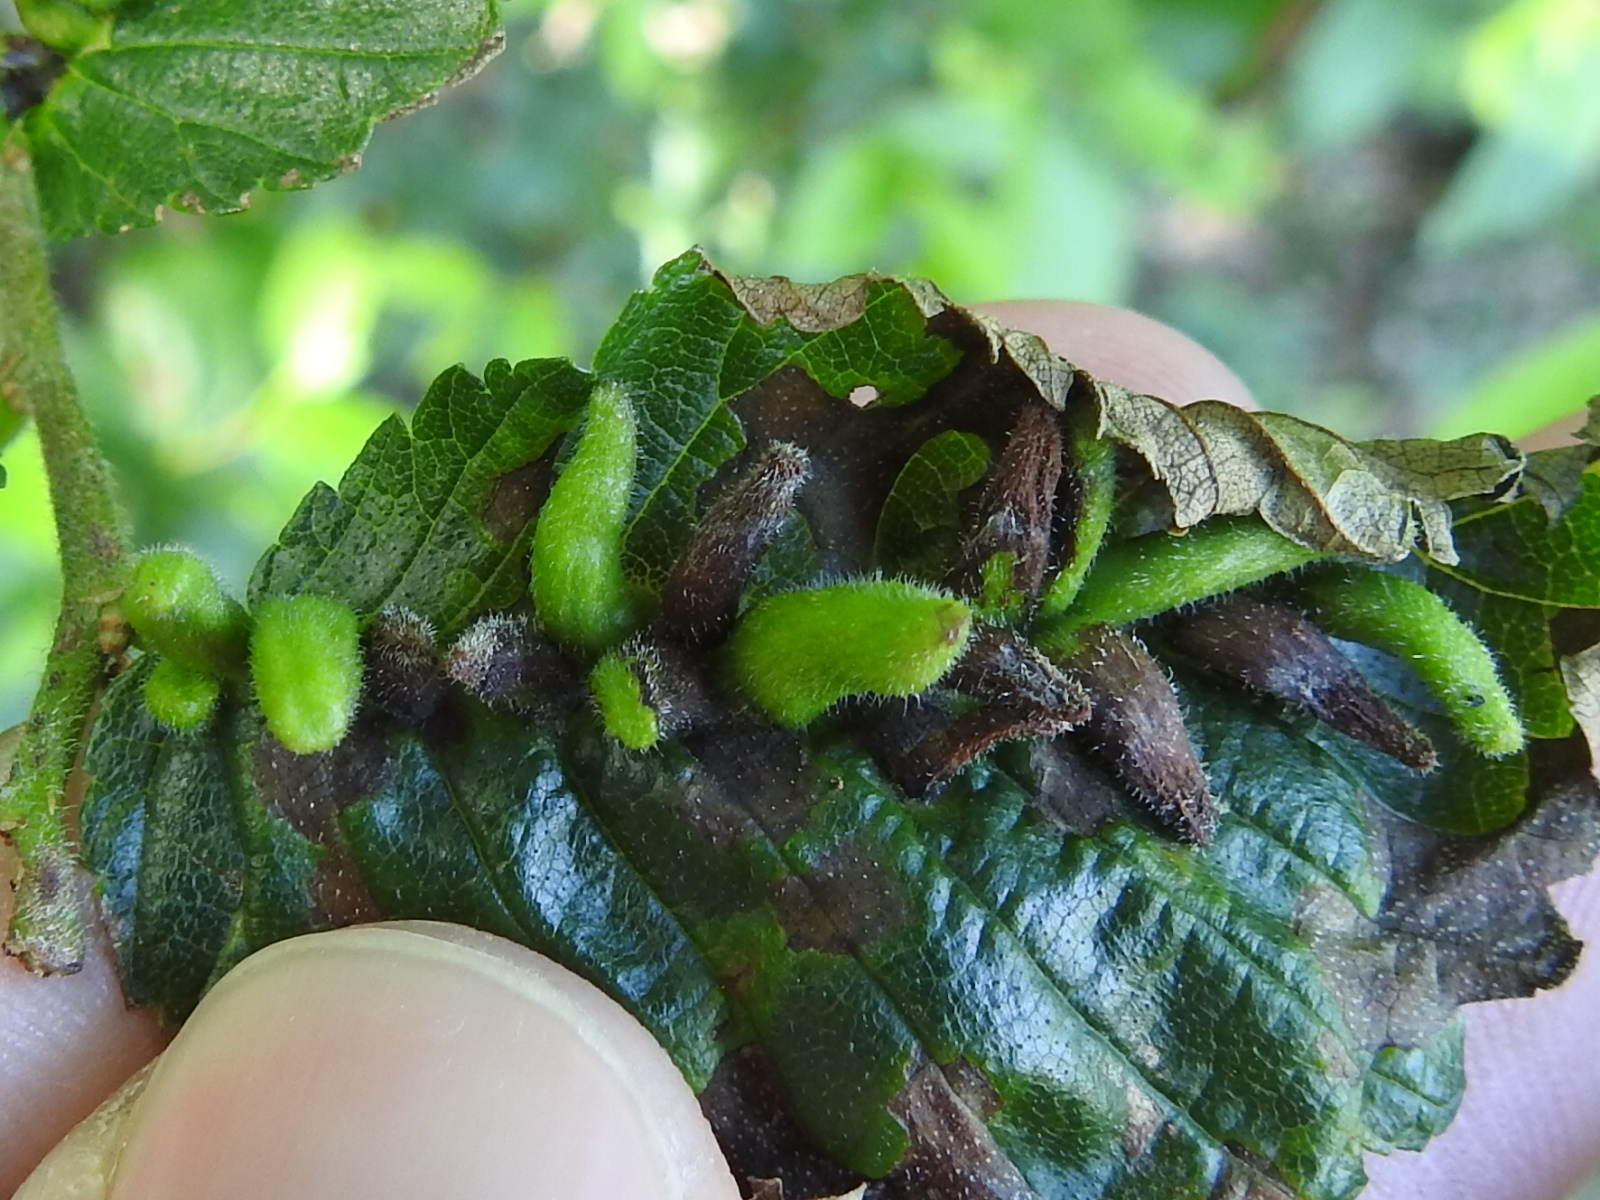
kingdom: Animalia
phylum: Arthropoda
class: Arachnida
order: Trombidiformes
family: Eriophyidae
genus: Aceria
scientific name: Aceria
